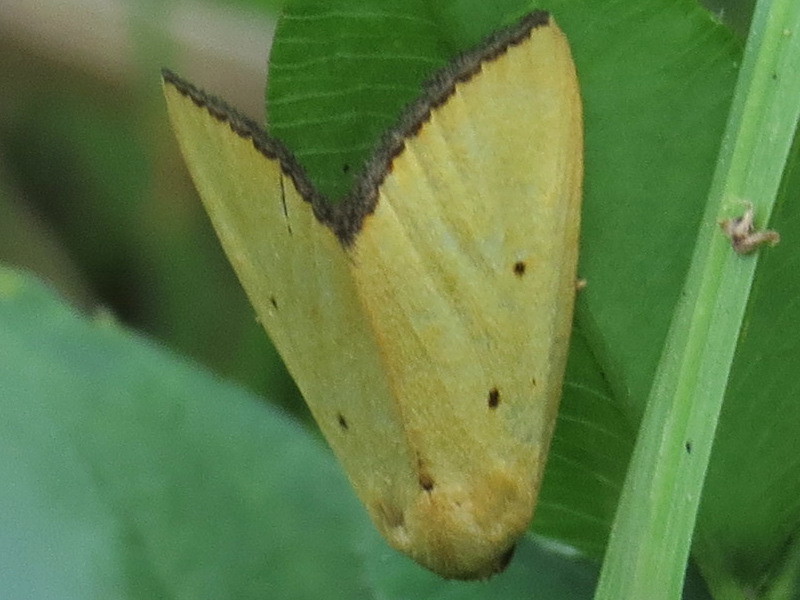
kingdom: Animalia
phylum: Arthropoda
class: Insecta
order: Lepidoptera
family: Noctuidae
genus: Marimatha
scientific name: Marimatha nigrofimbria
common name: Black-bordered lemon moth
